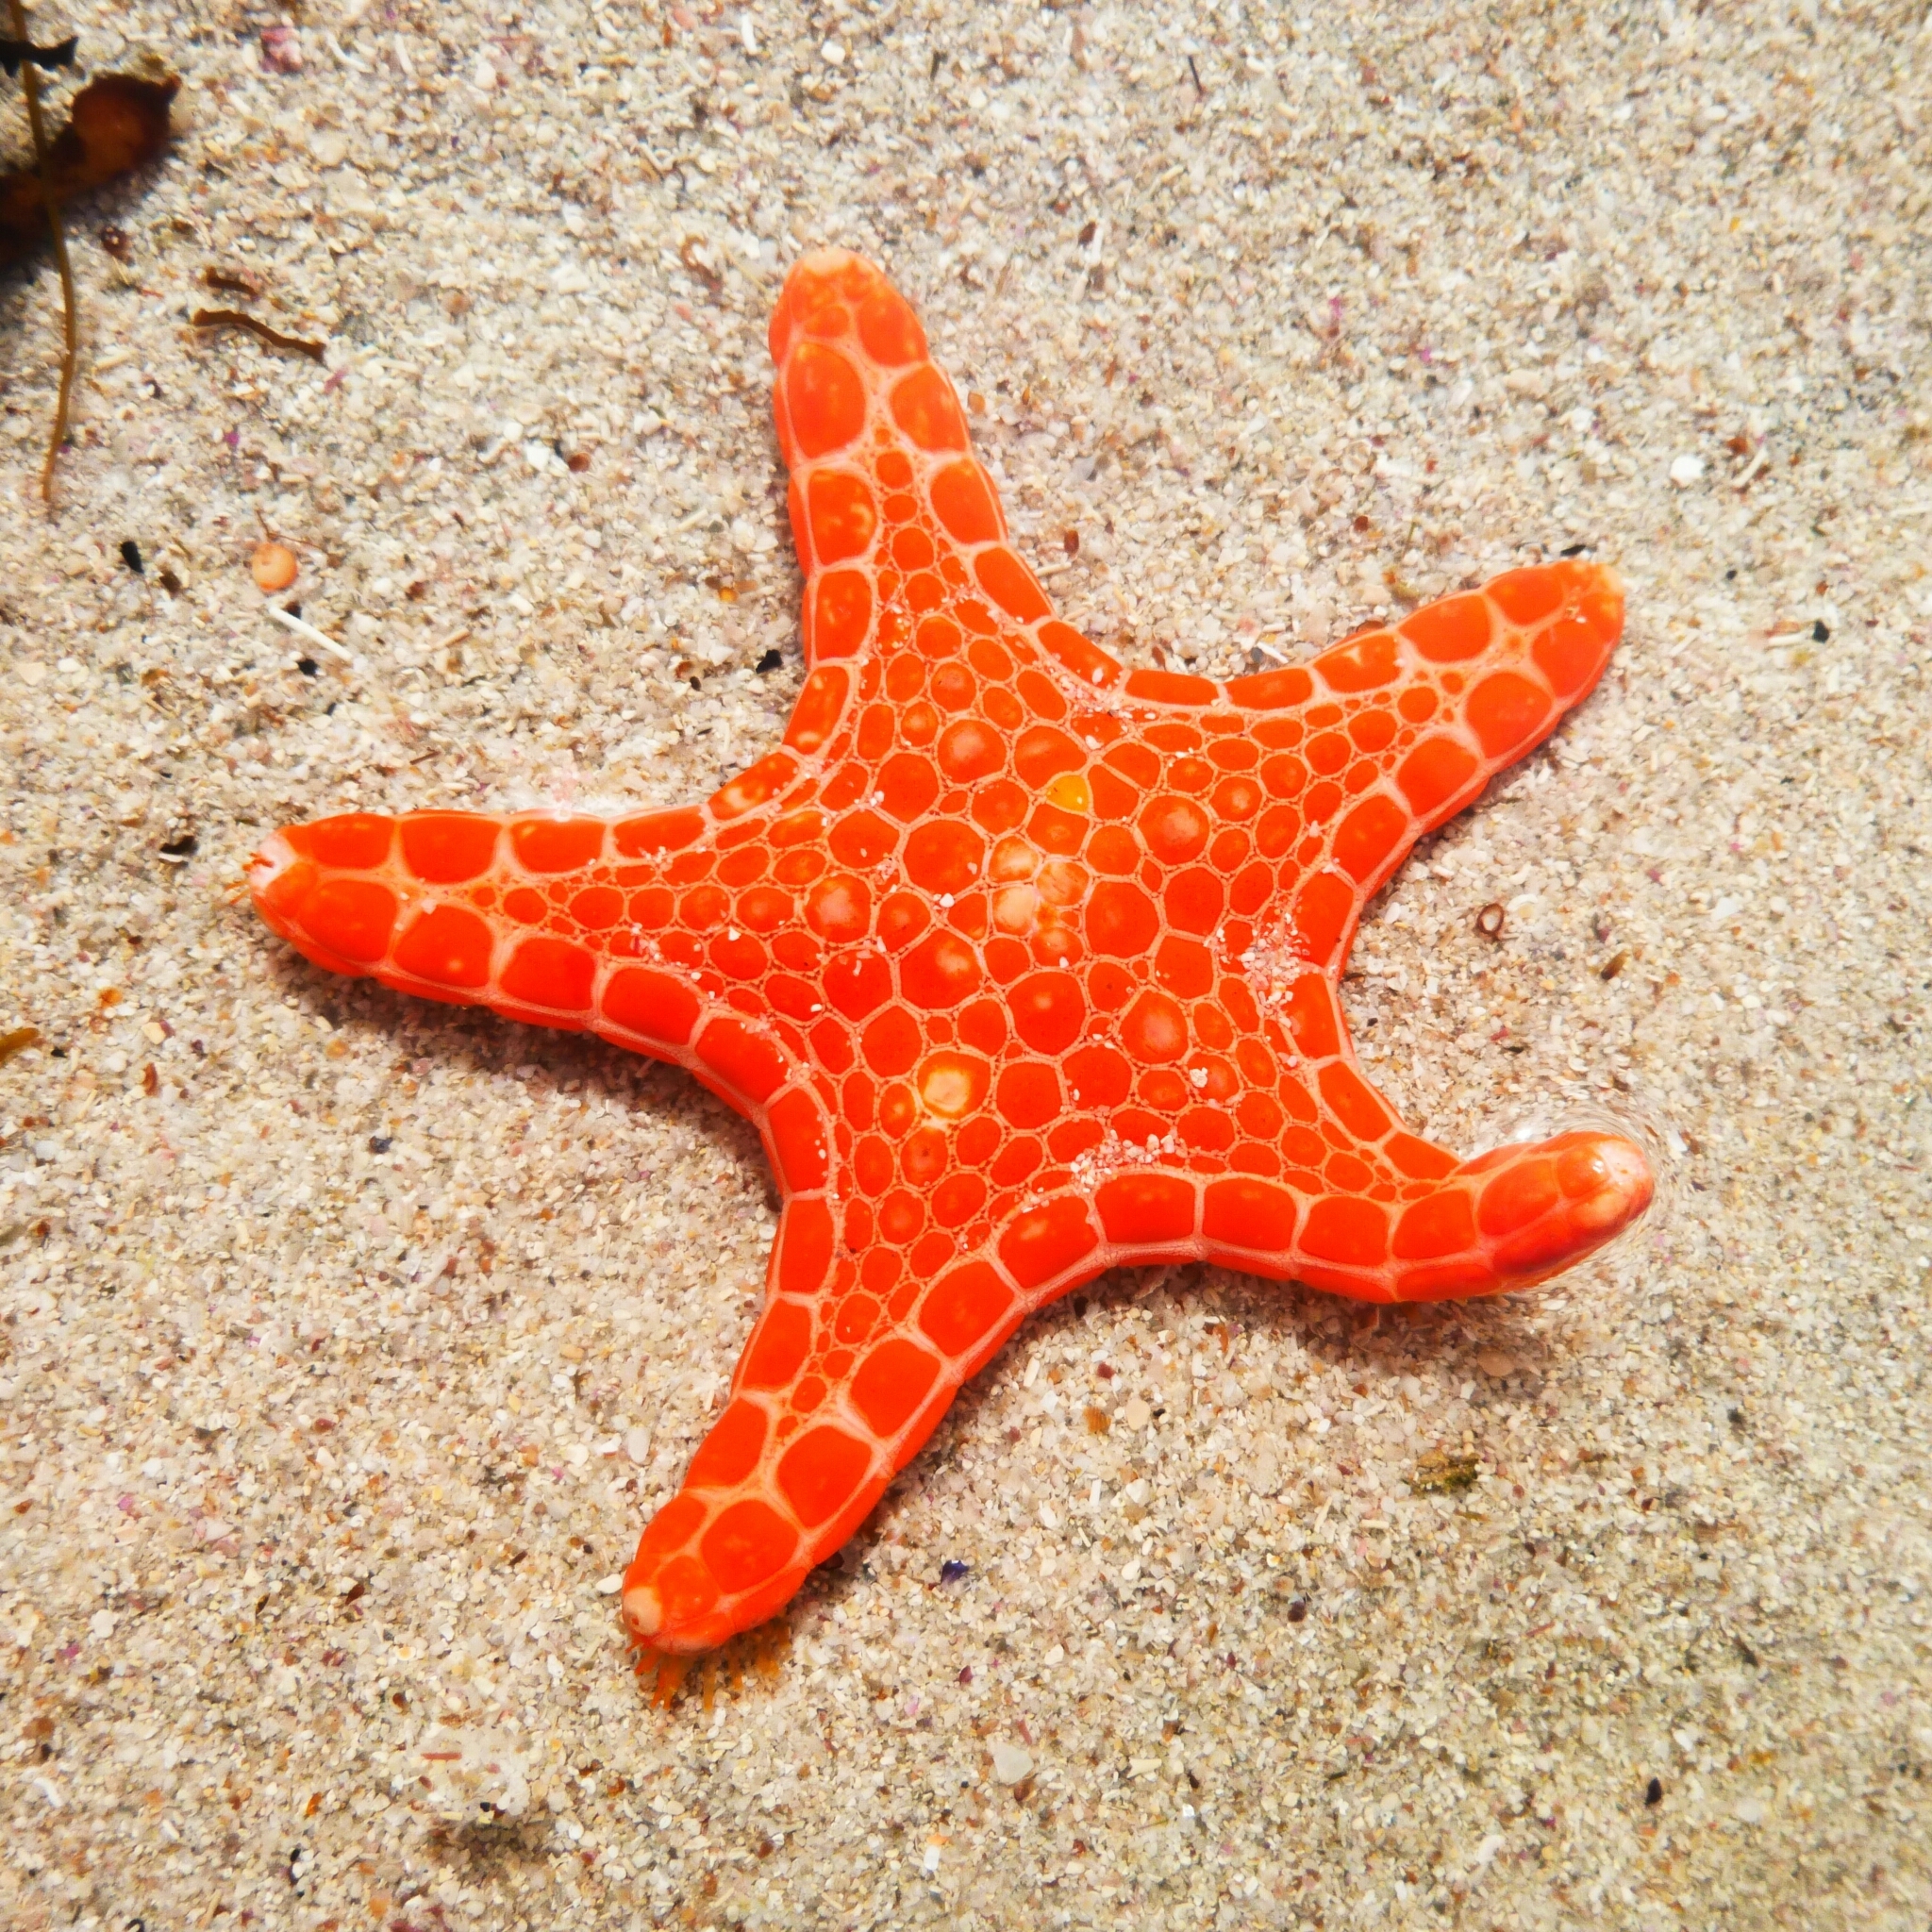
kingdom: Animalia
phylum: Echinodermata
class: Asteroidea
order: Valvatida
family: Goniasteridae
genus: Pentagonaster
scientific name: Pentagonaster duebeni
